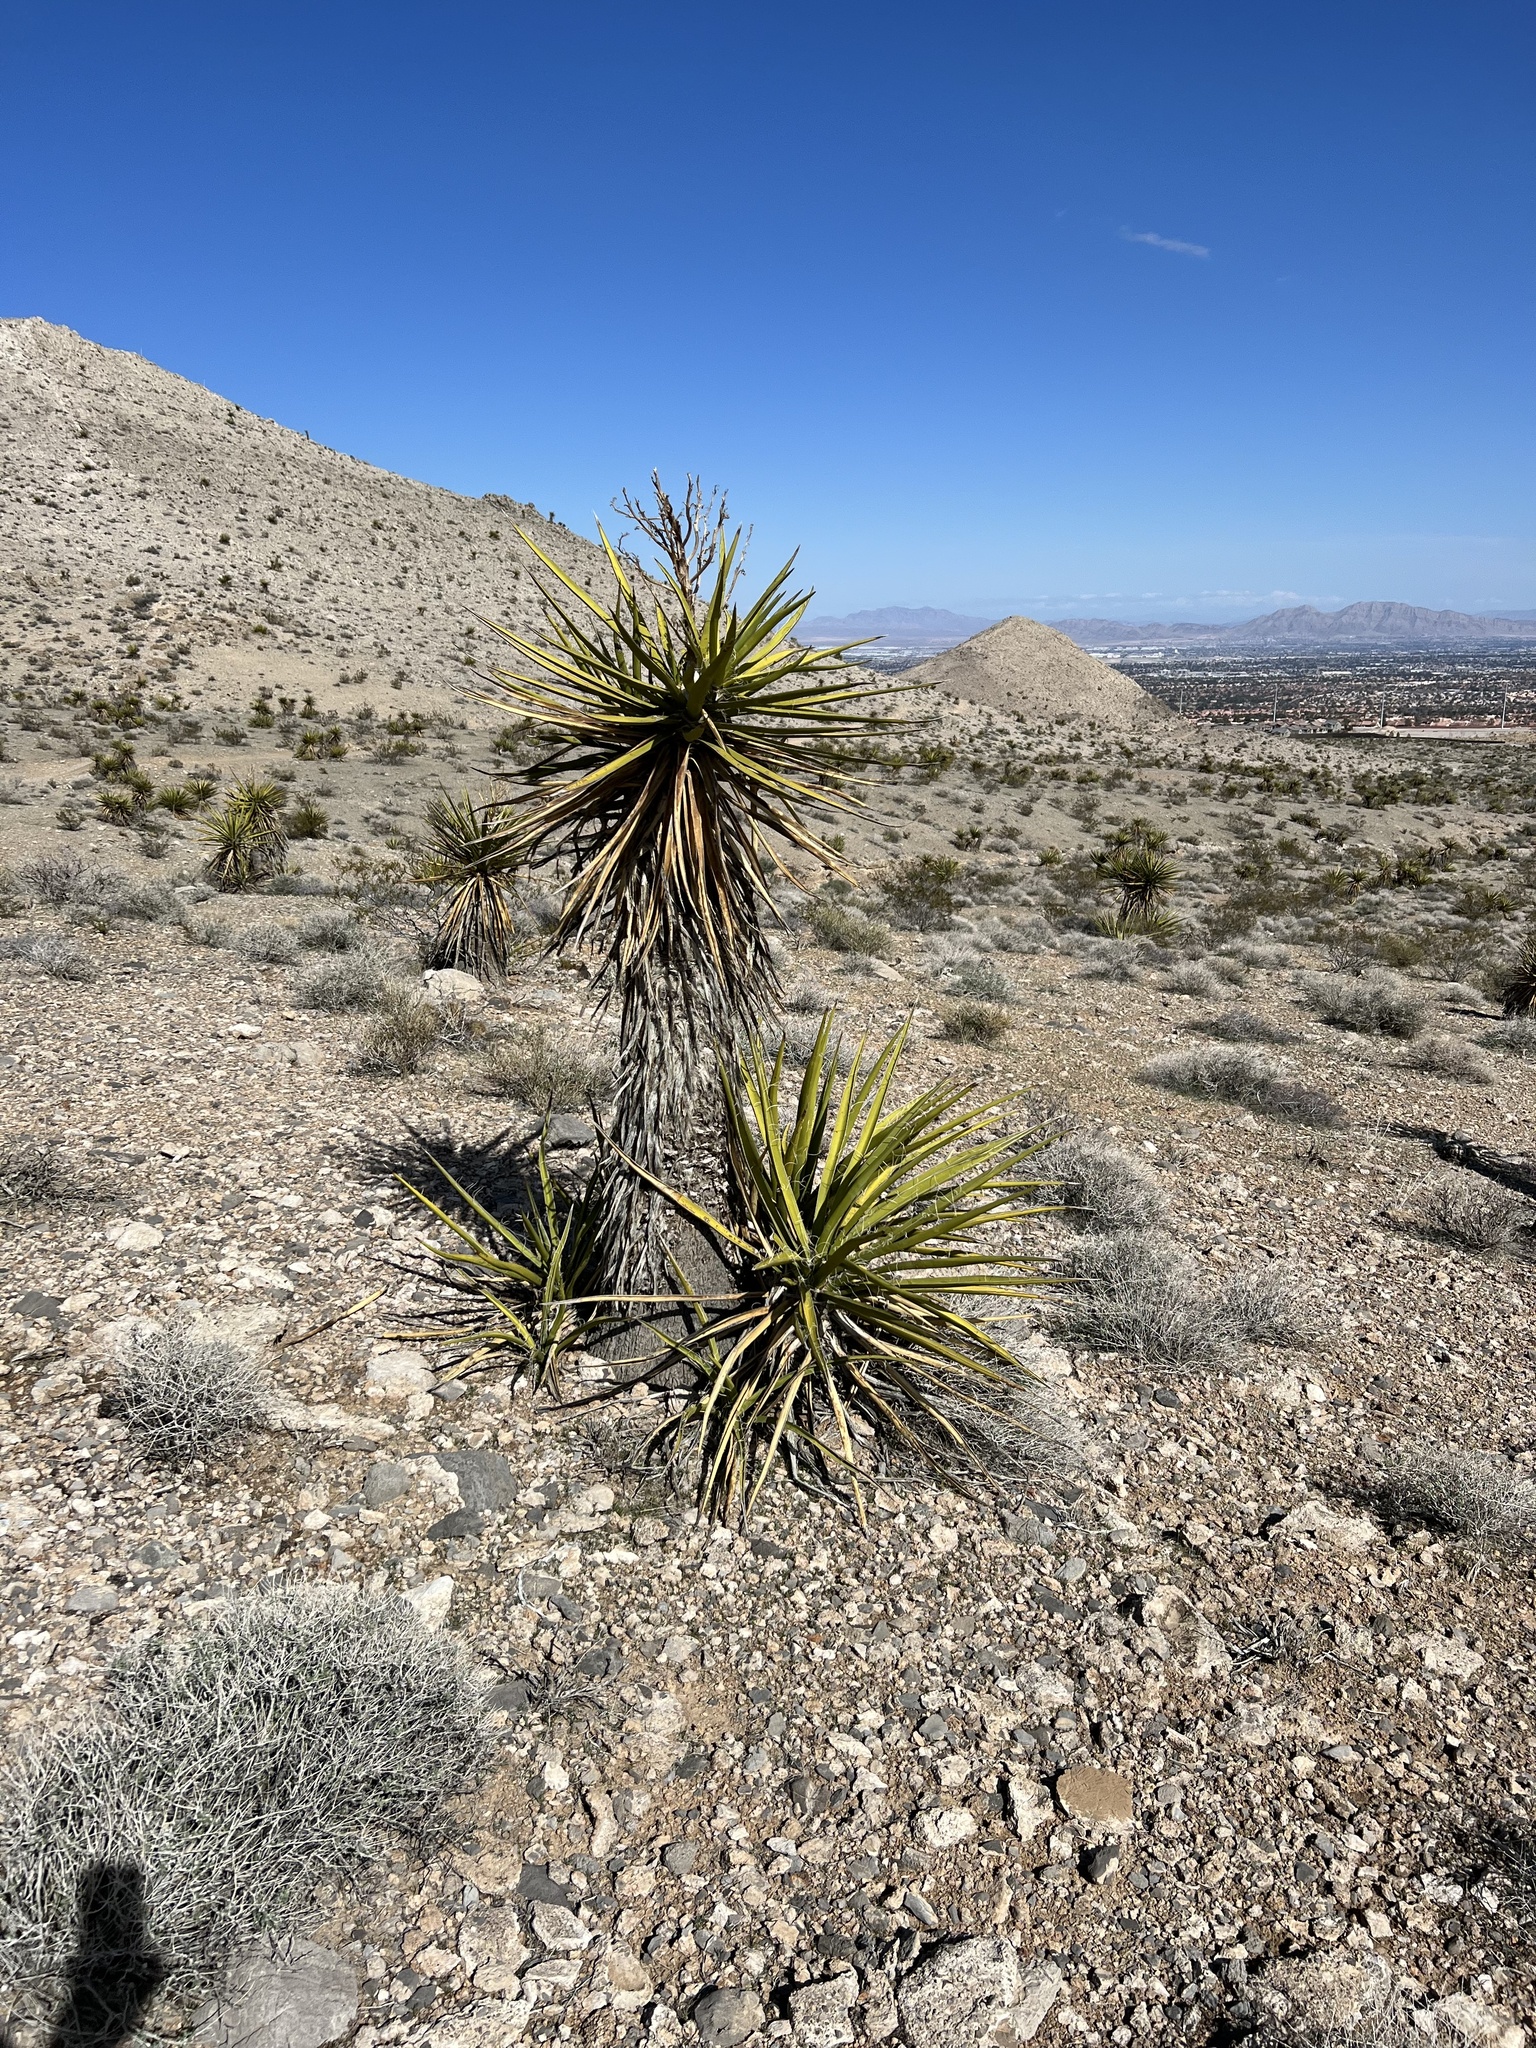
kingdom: Plantae
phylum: Tracheophyta
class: Liliopsida
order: Asparagales
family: Asparagaceae
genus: Yucca
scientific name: Yucca schidigera
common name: Mojave yucca
